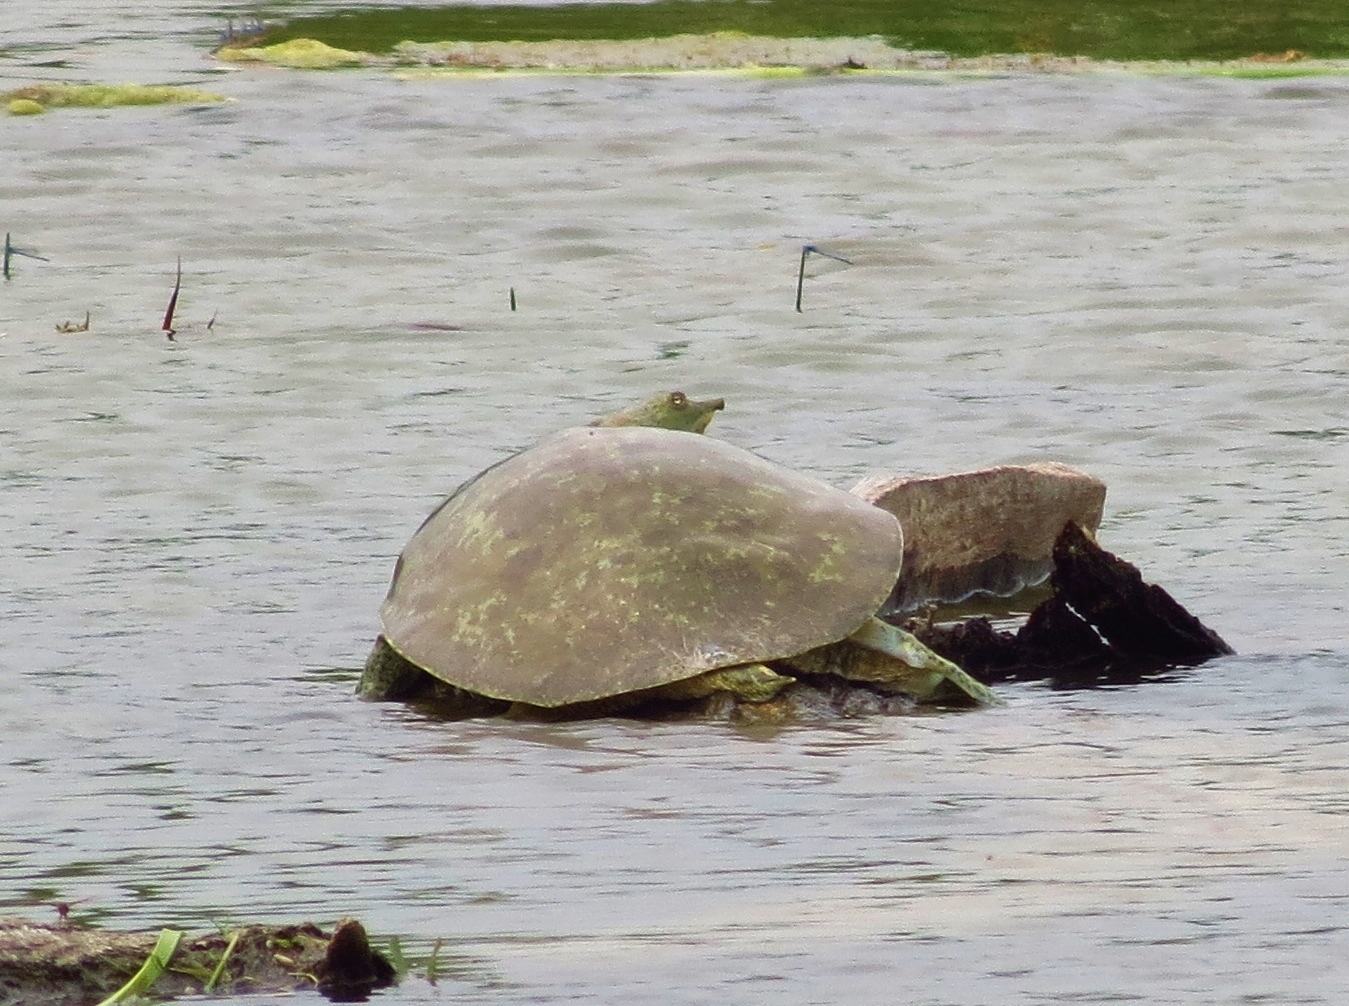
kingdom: Animalia
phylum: Chordata
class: Testudines
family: Trionychidae
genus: Apalone
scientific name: Apalone spinifera
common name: Spiny softshell turtle
